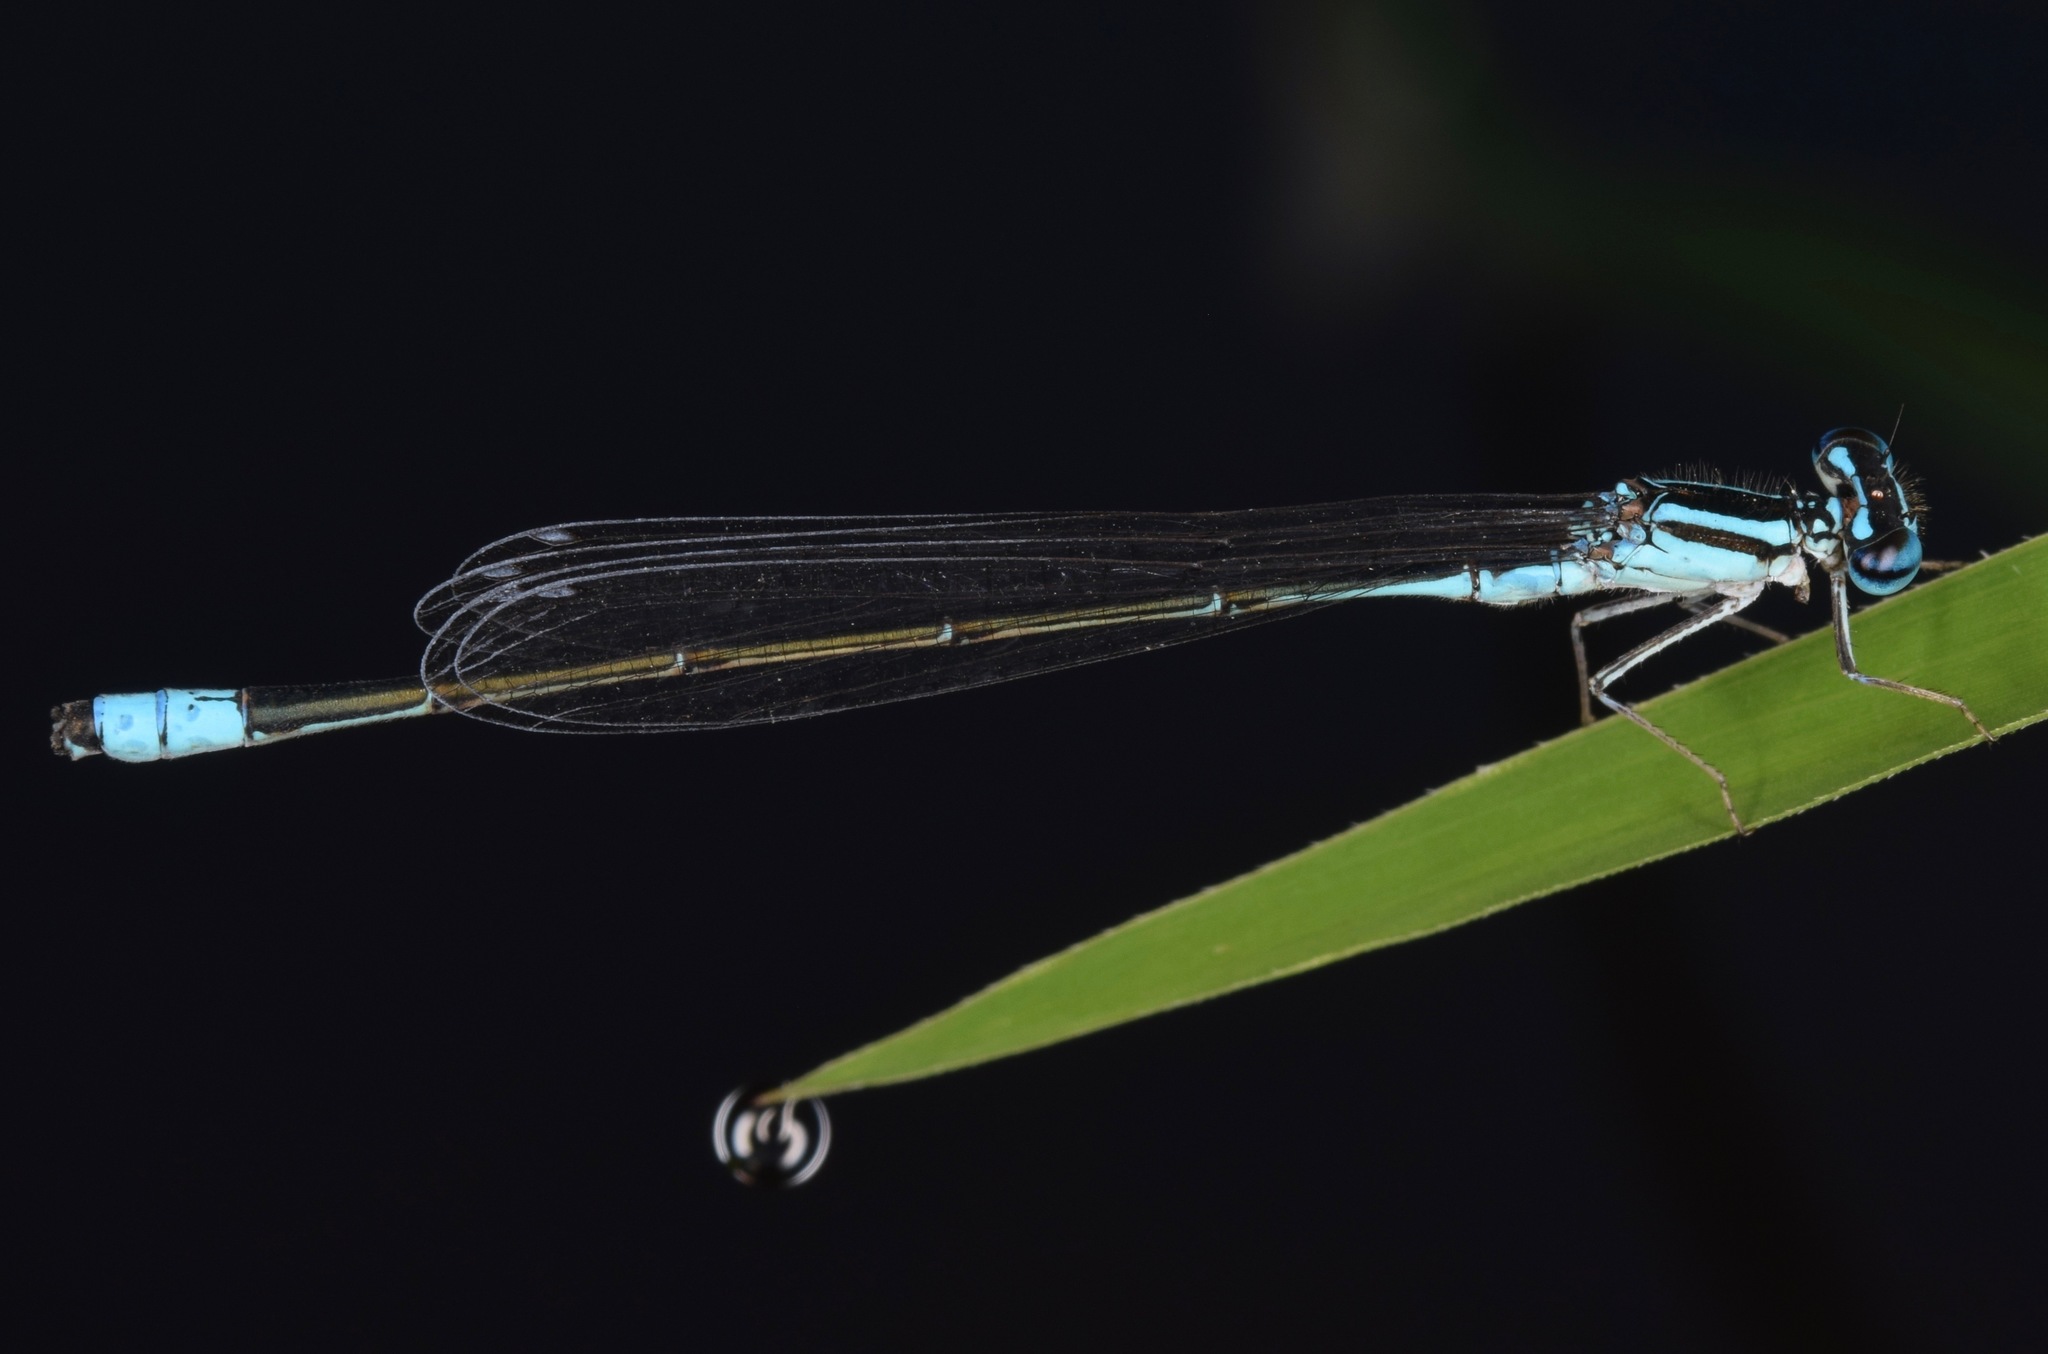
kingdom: Animalia
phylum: Arthropoda
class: Insecta
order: Odonata
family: Coenagrionidae
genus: Enallagma
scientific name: Enallagma divagans
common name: Turquoise bluet
